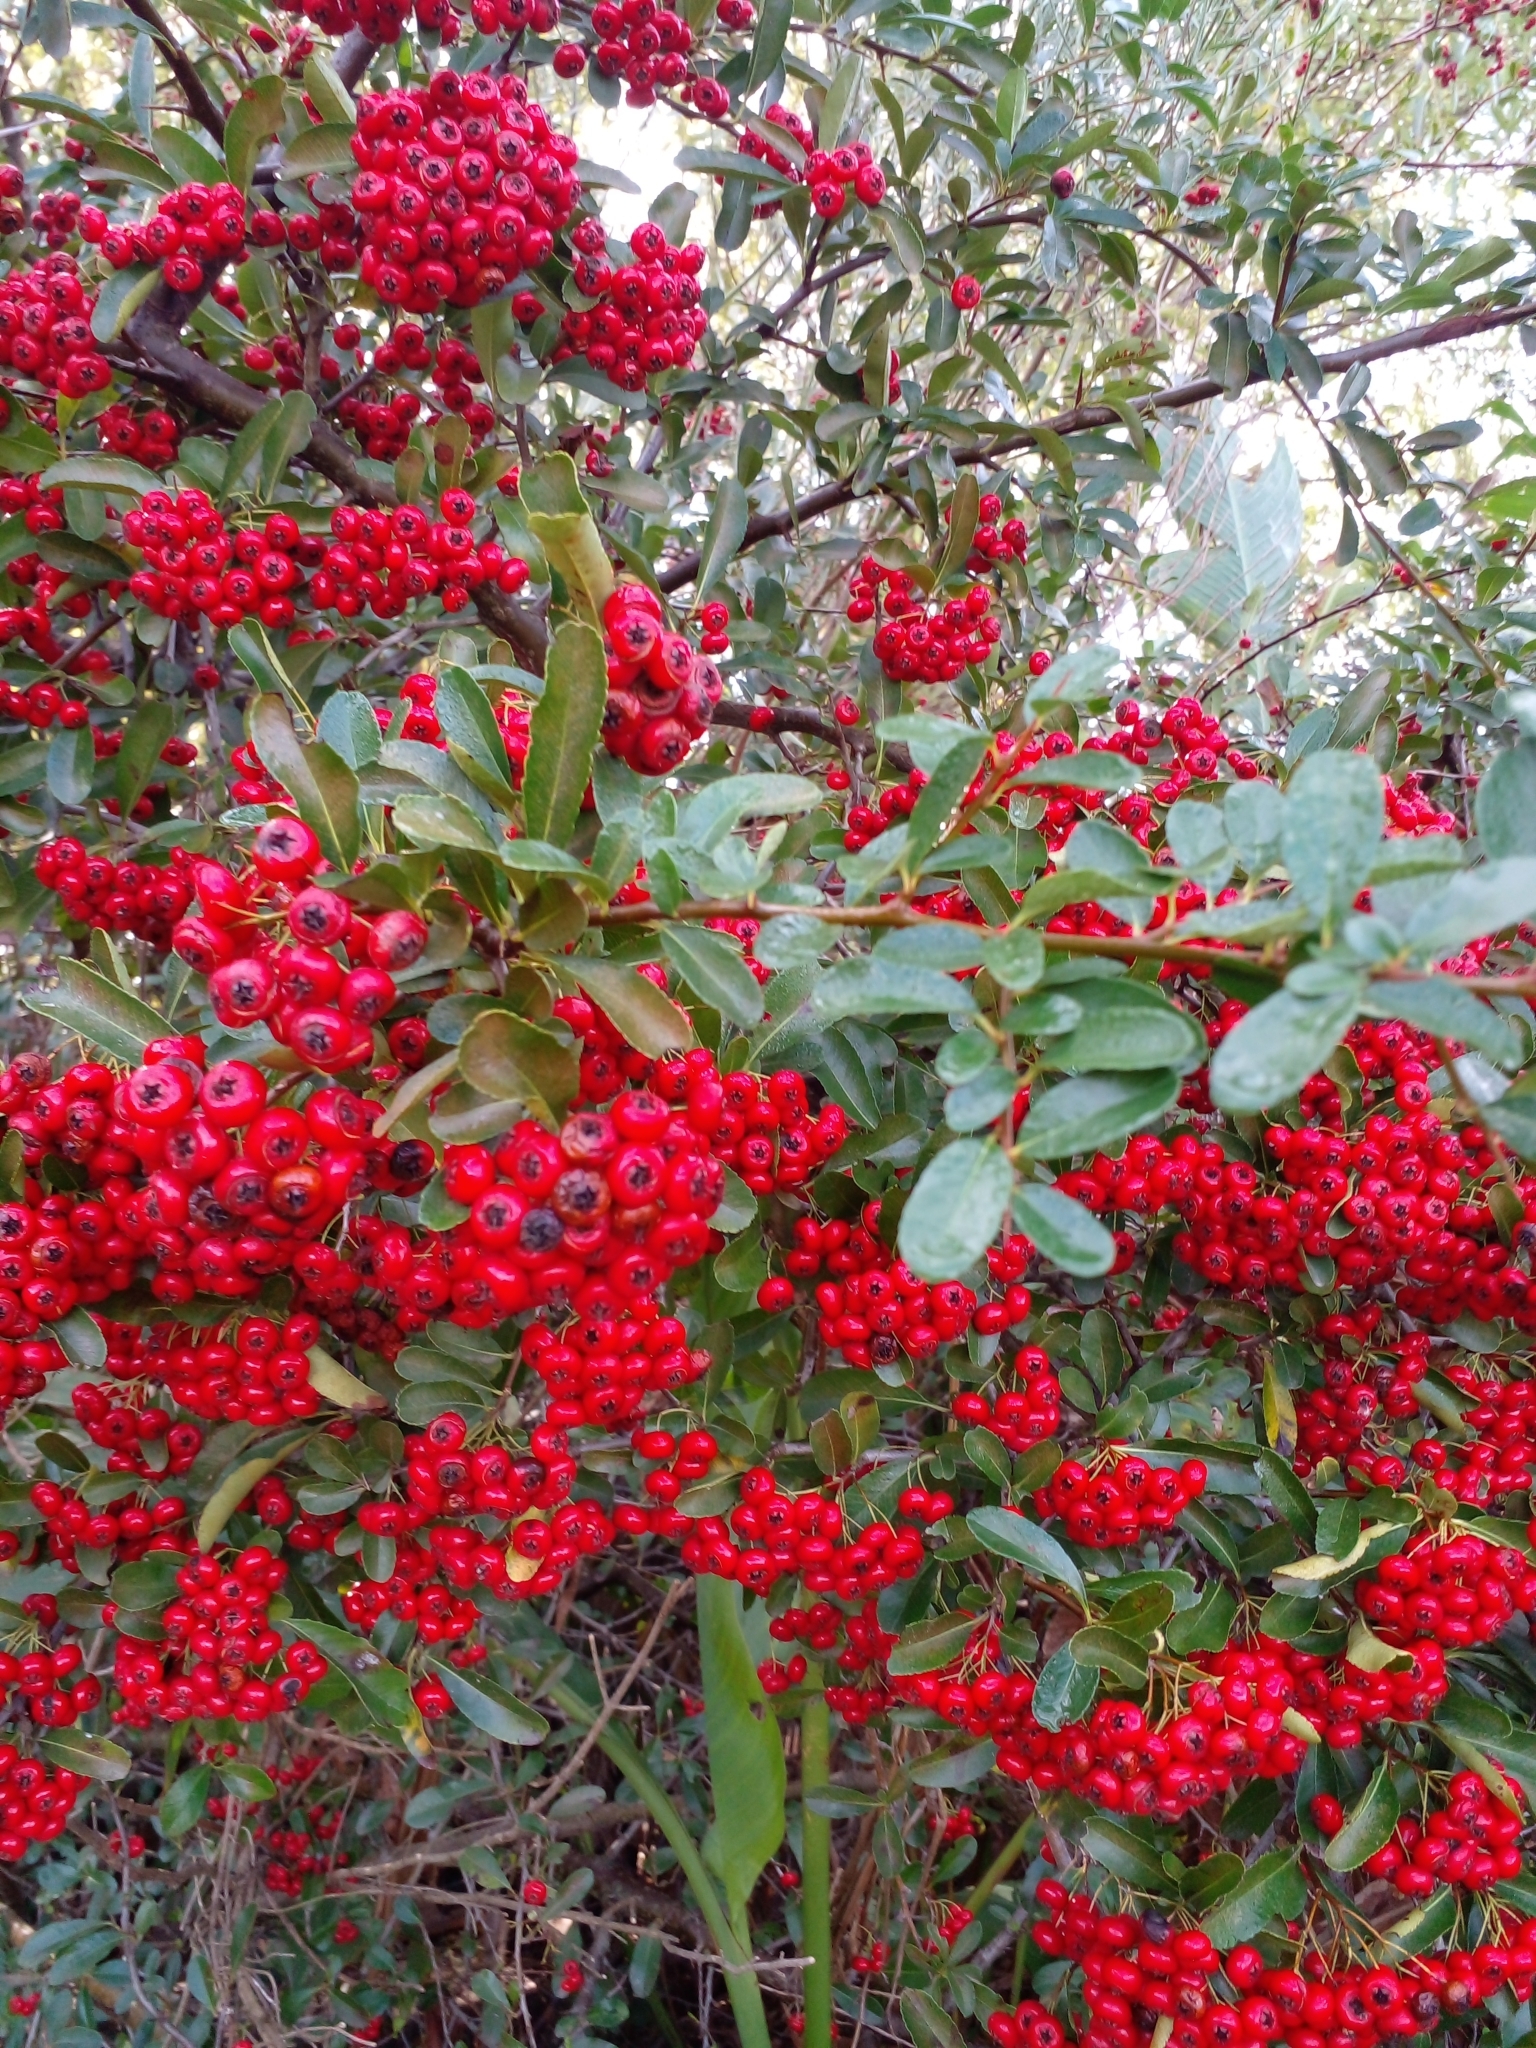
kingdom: Plantae
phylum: Tracheophyta
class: Magnoliopsida
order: Rosales
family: Rosaceae
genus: Pyracantha
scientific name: Pyracantha fortuneana
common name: Chinese firethorn
